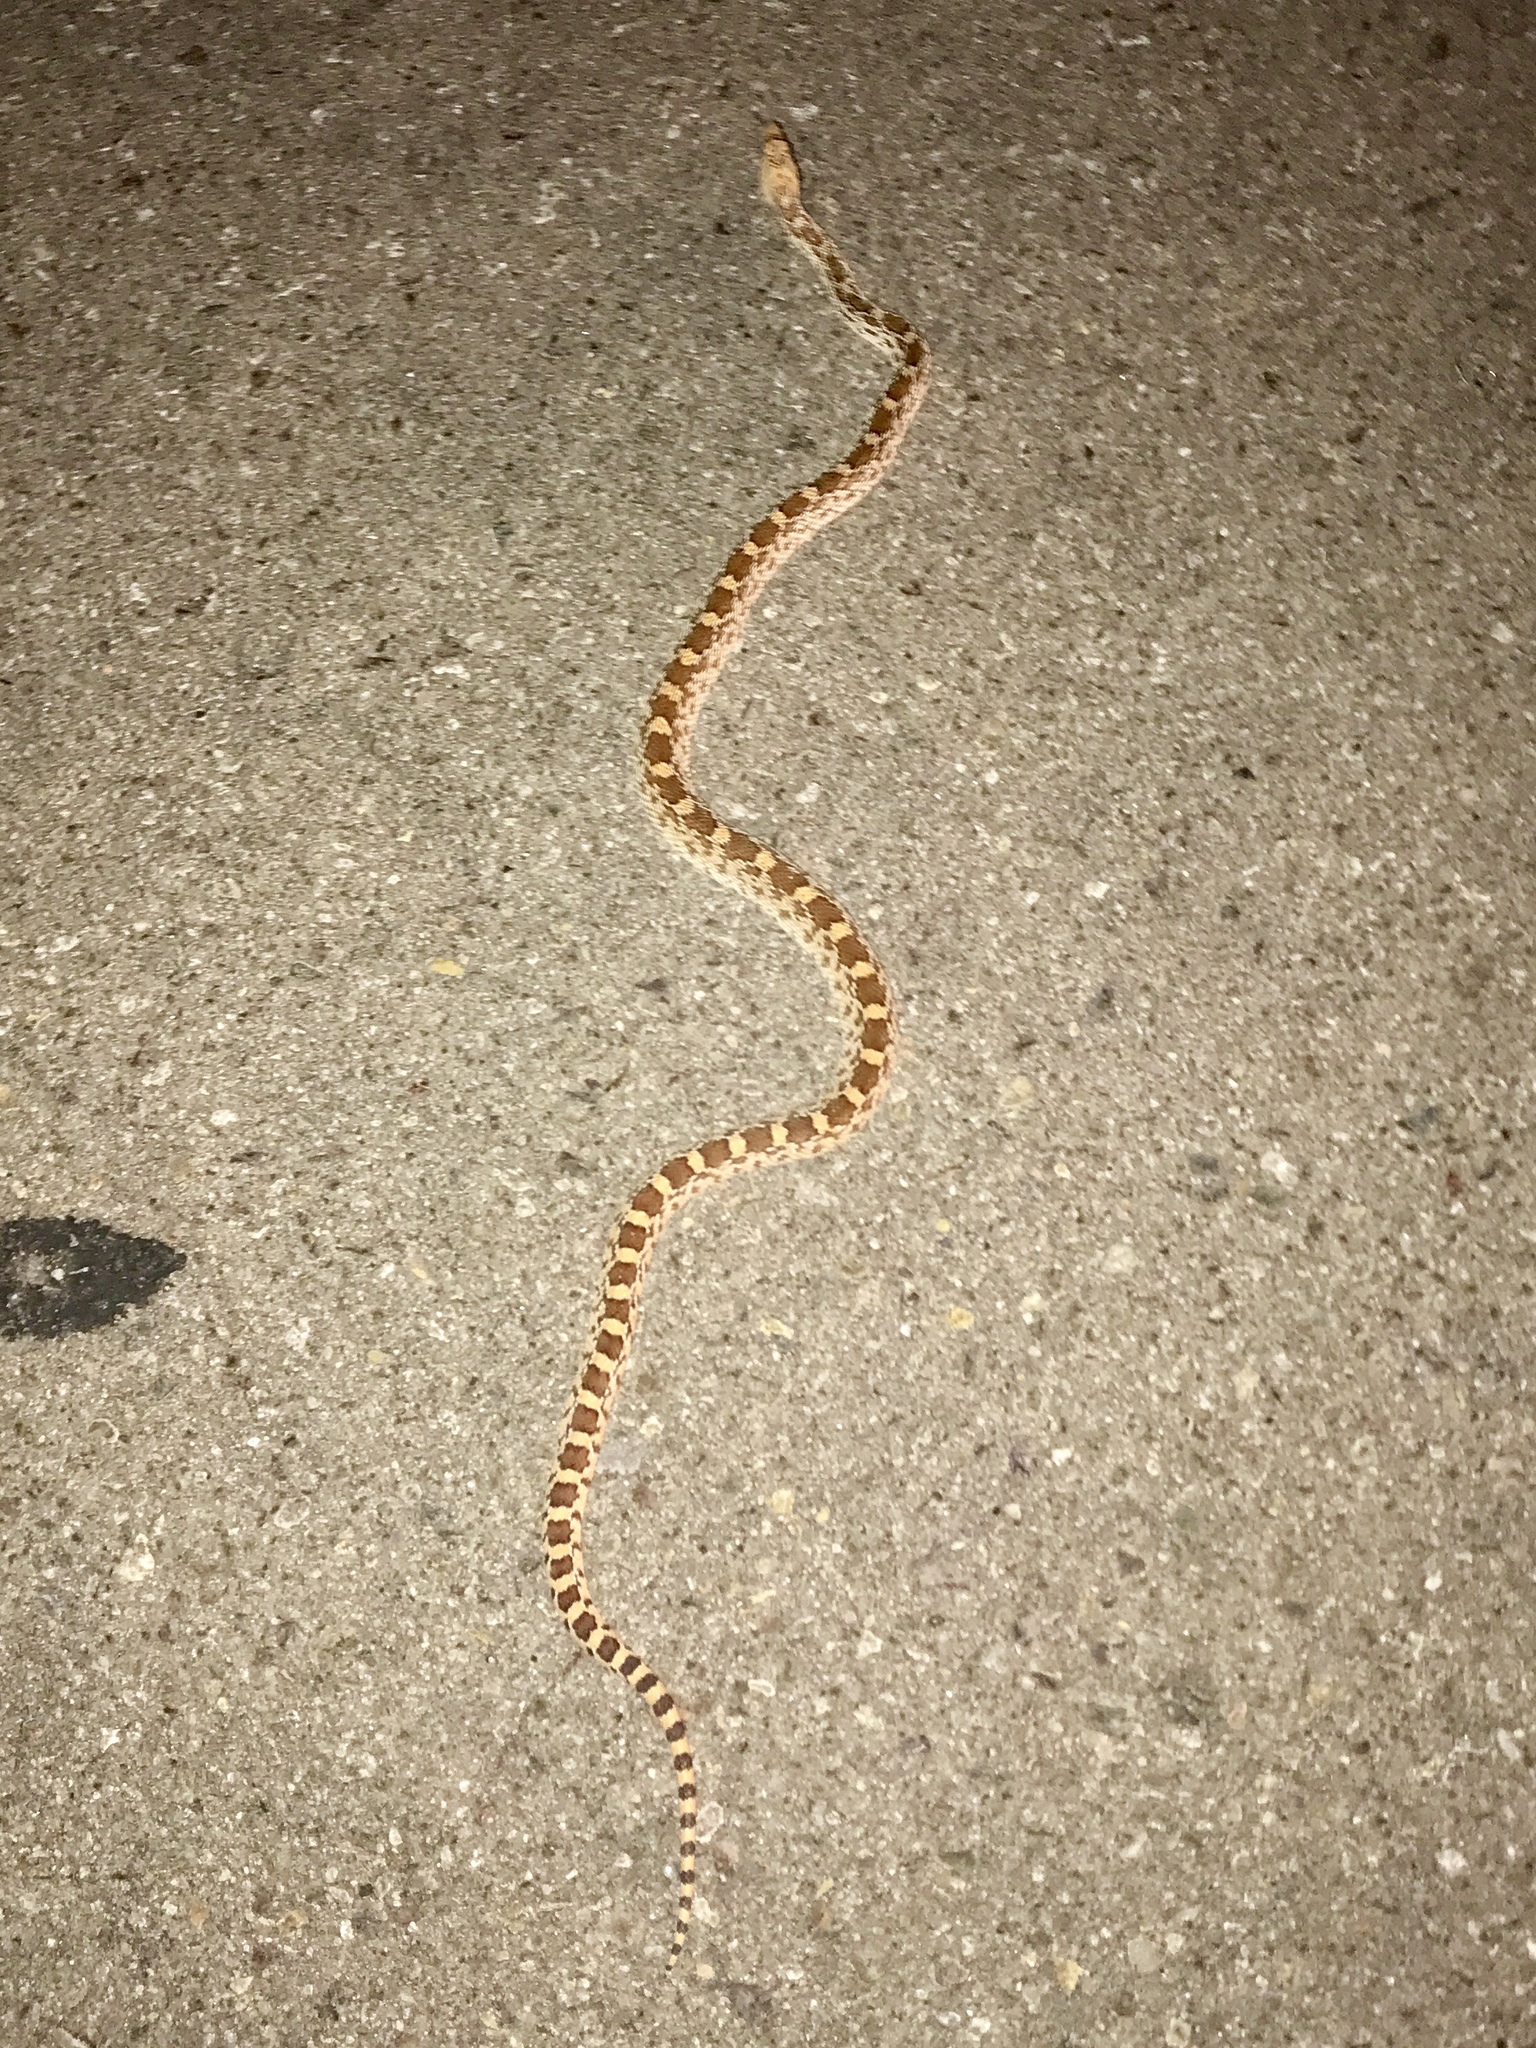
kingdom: Animalia
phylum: Chordata
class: Squamata
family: Colubridae
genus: Pituophis
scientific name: Pituophis catenifer
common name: Gopher snake
